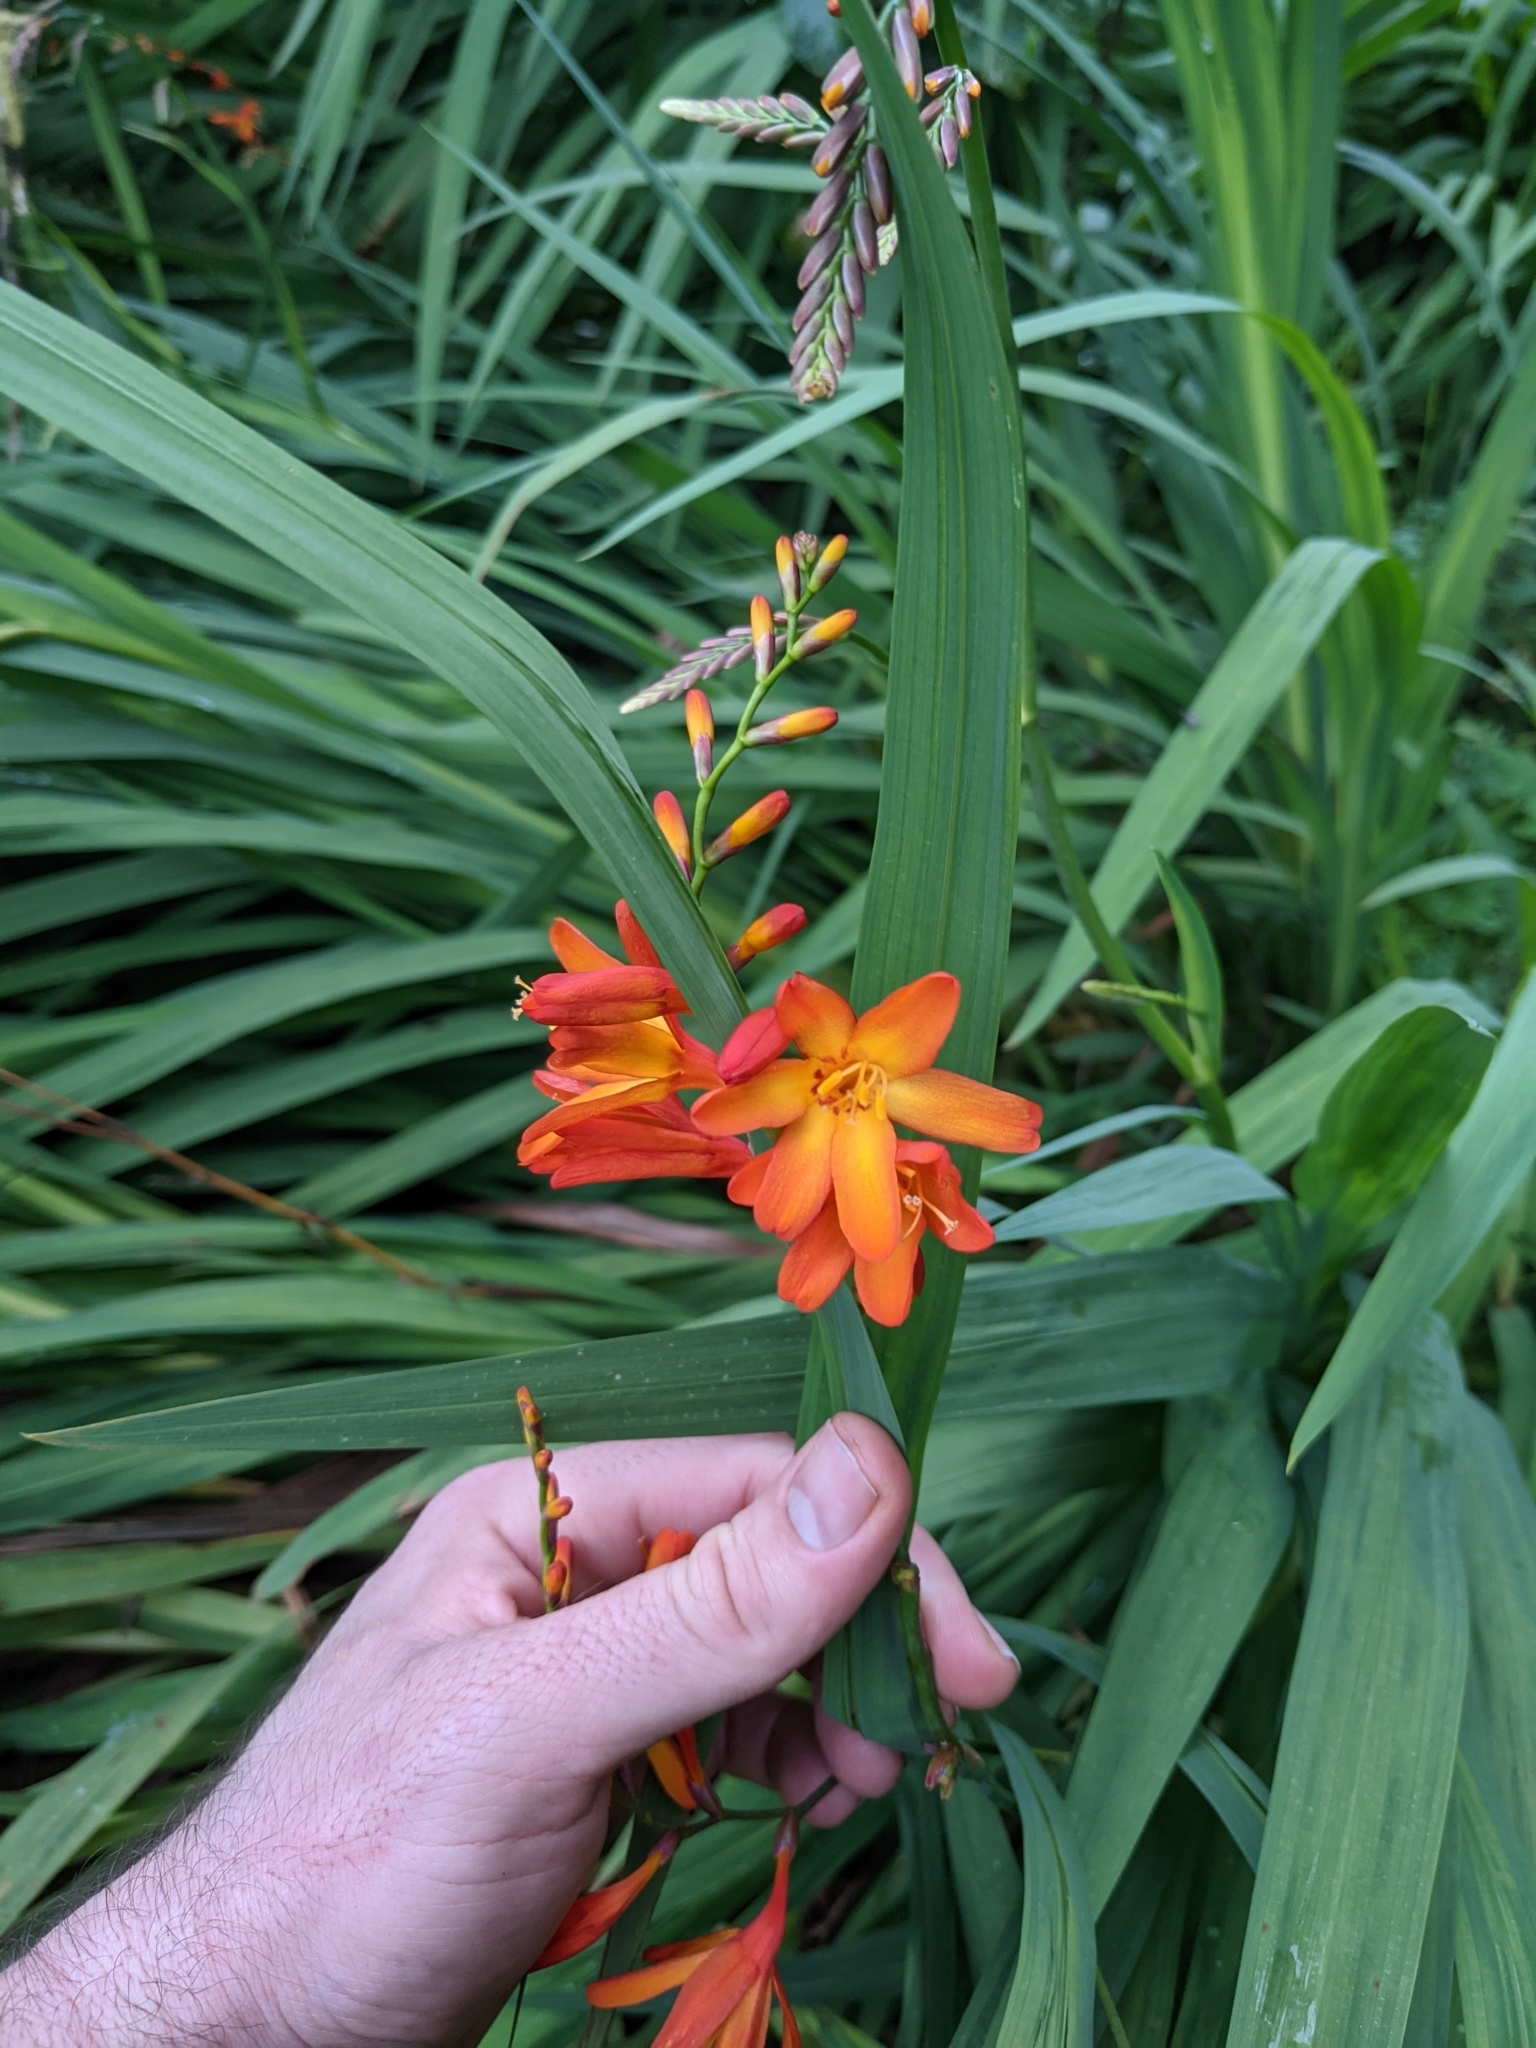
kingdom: Plantae
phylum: Tracheophyta
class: Liliopsida
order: Asparagales
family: Iridaceae
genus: Crocosmia
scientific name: Crocosmia crocosmiiflora
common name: Montbretia
